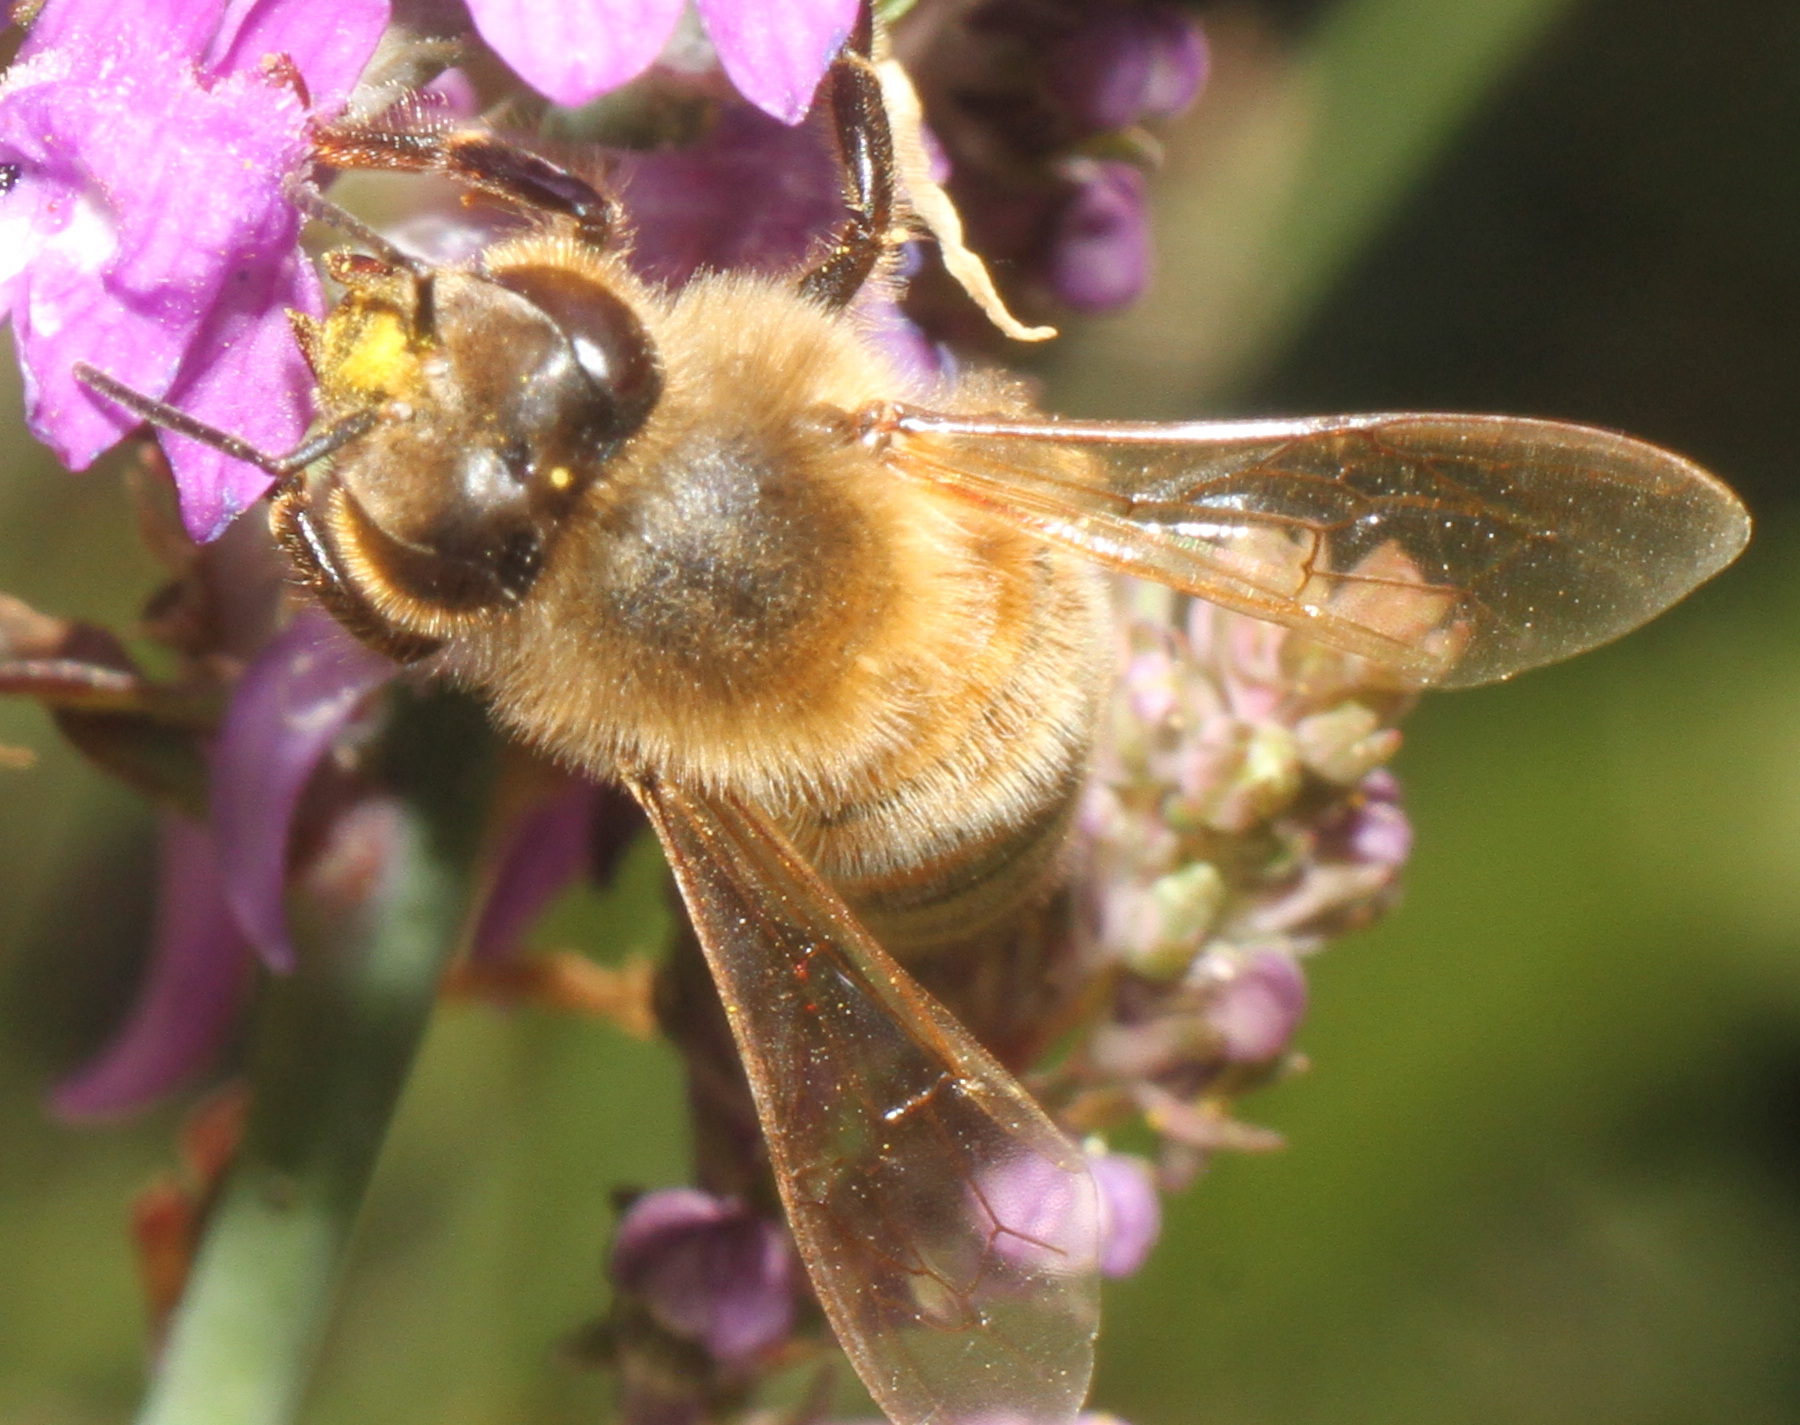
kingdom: Animalia
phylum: Arthropoda
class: Insecta
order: Hymenoptera
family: Apidae
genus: Apis
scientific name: Apis mellifera
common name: Honey bee
